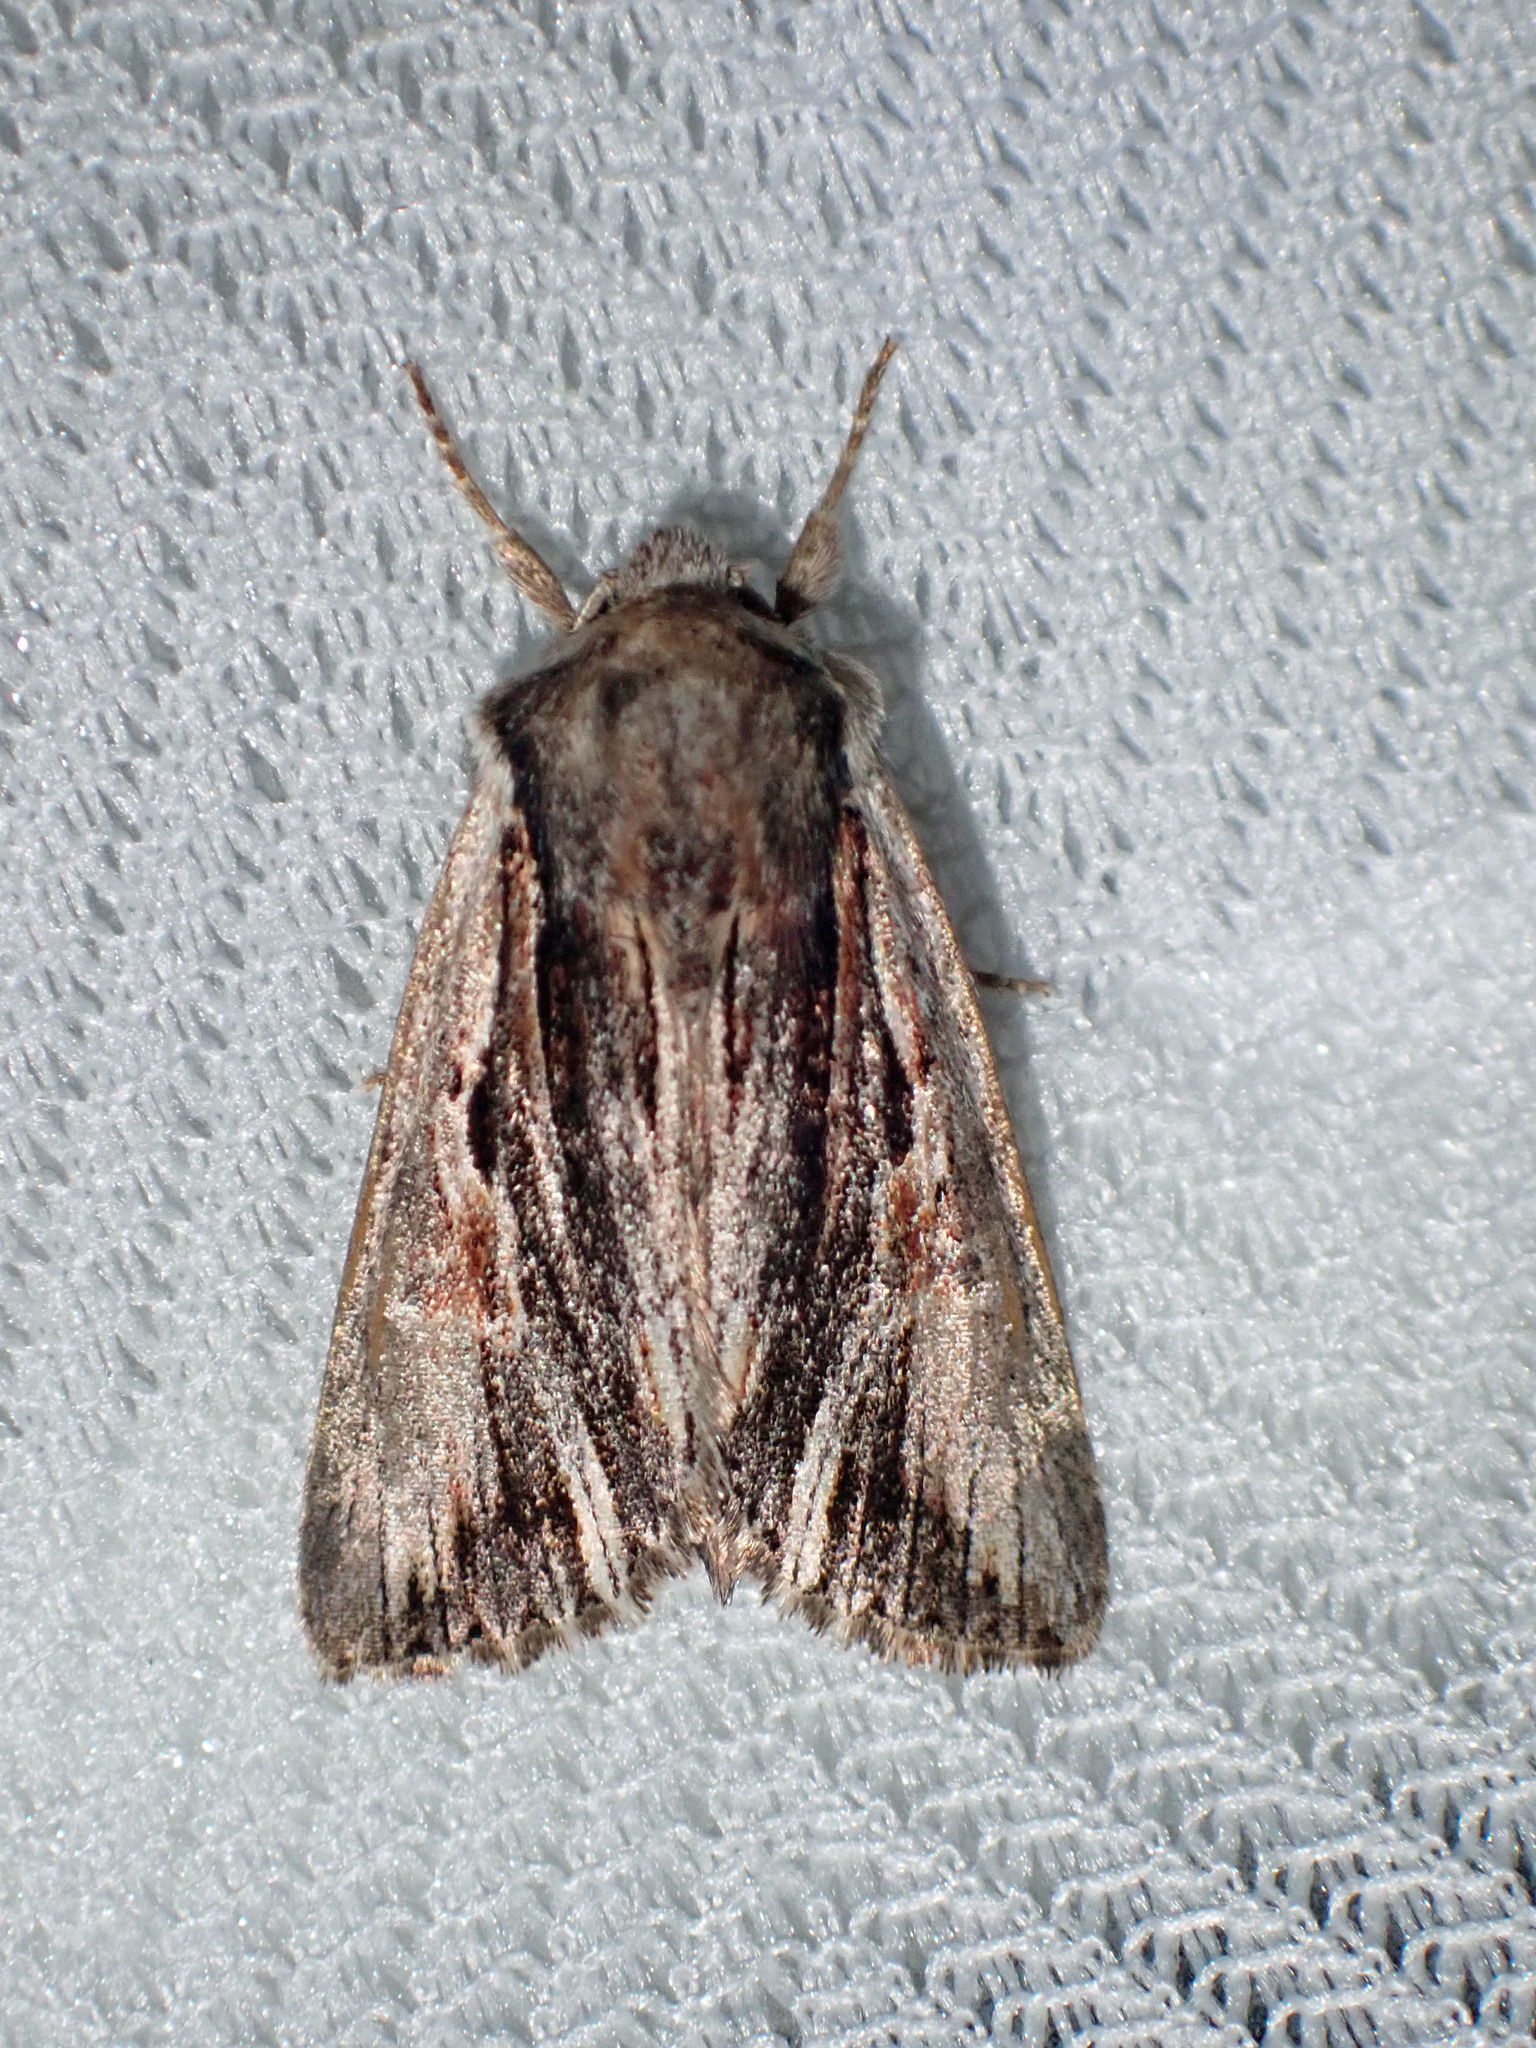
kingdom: Animalia
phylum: Arthropoda
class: Insecta
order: Lepidoptera
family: Noctuidae
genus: Achatia
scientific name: Achatia evicta
